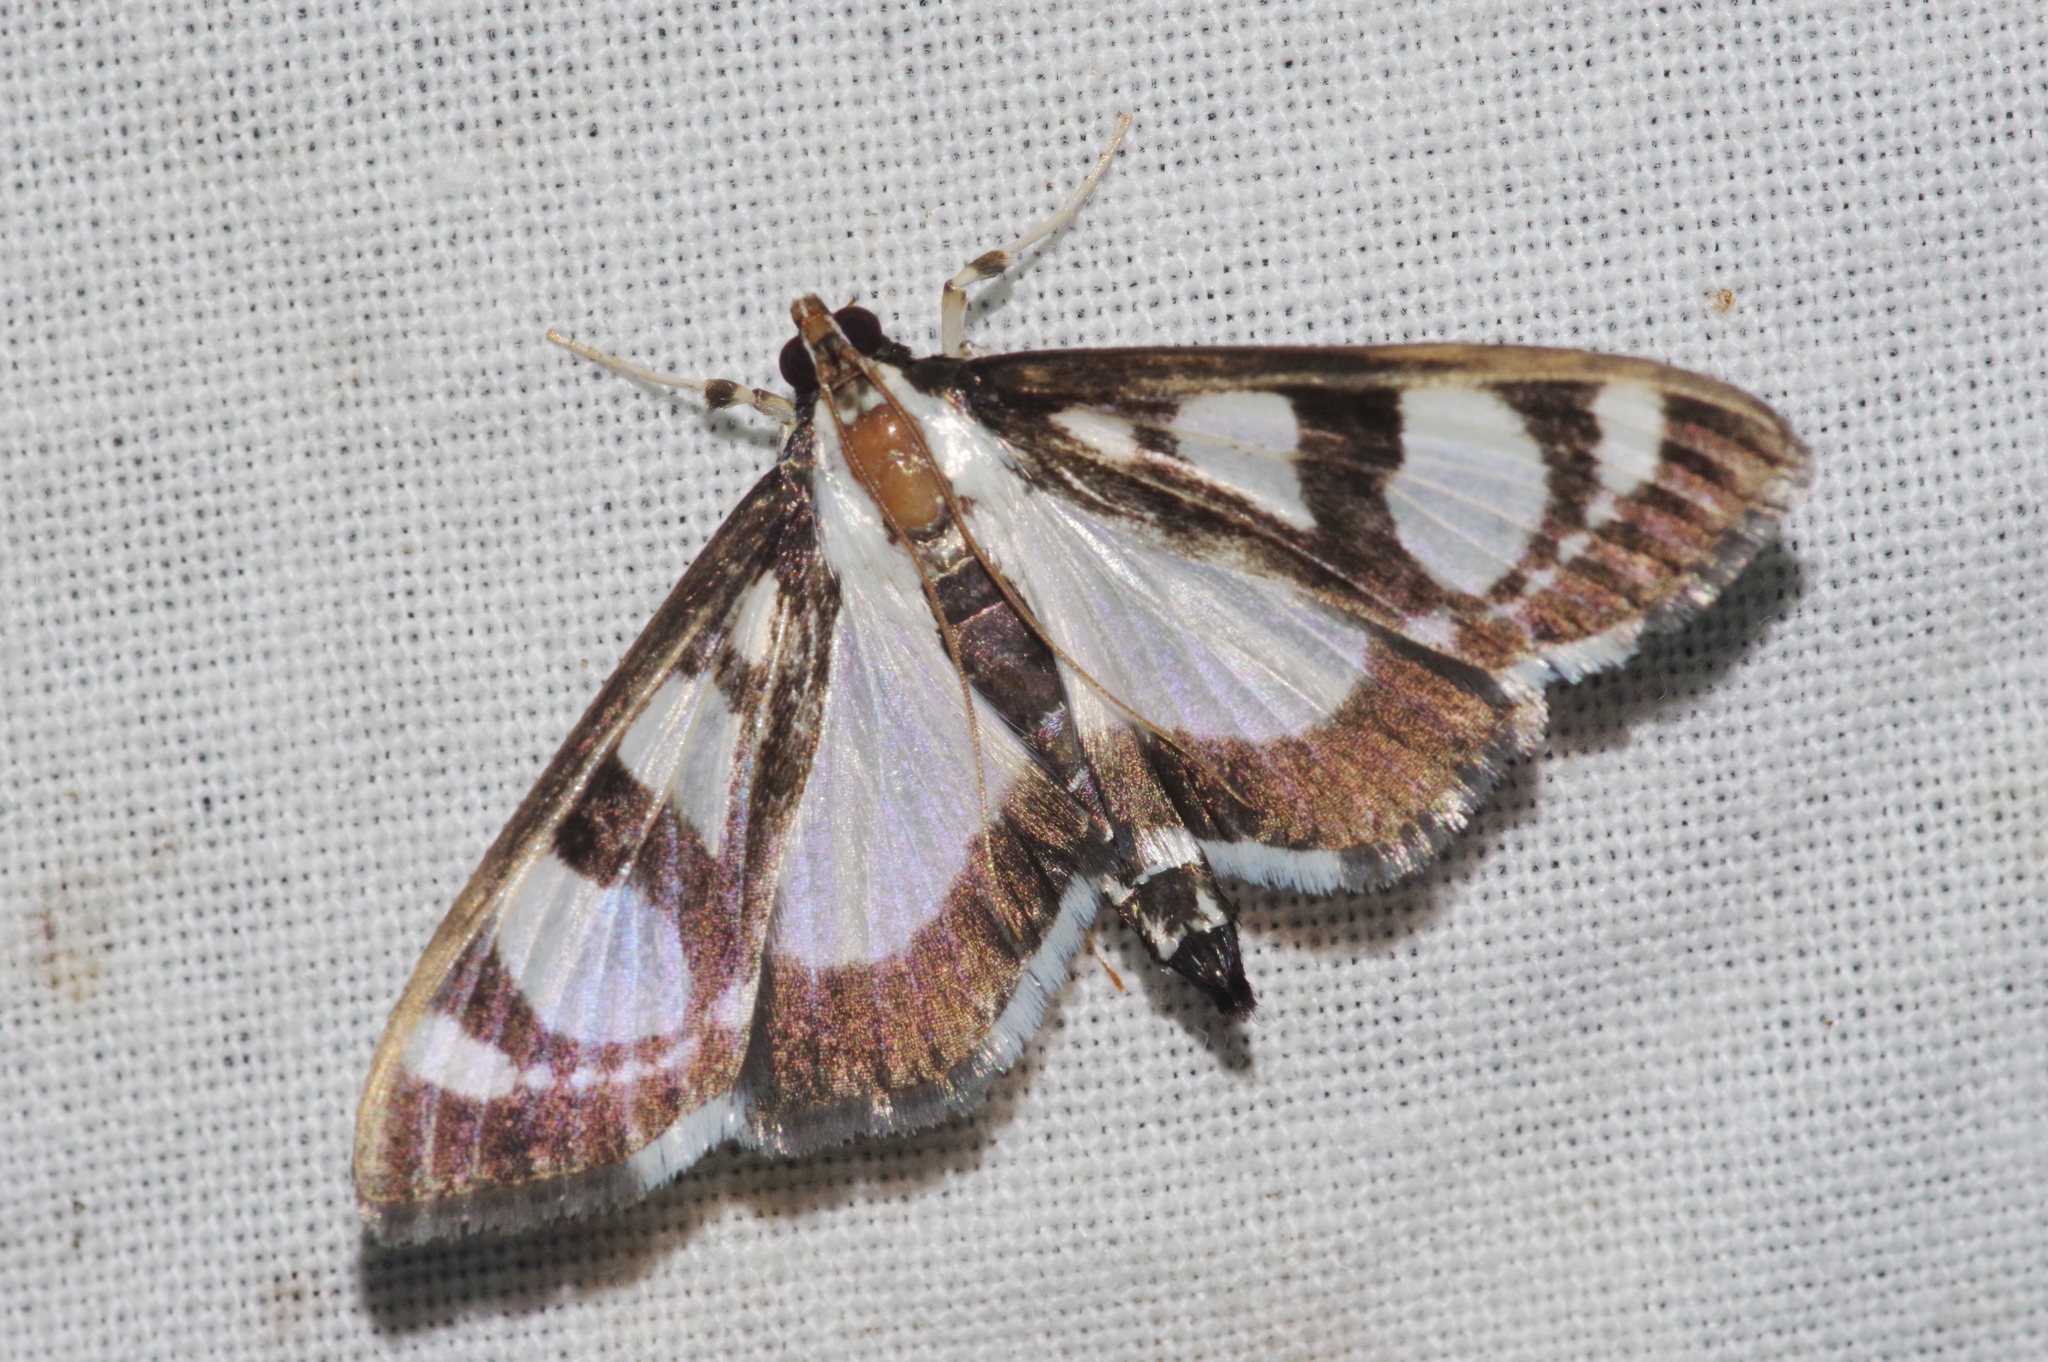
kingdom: Animalia
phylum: Arthropoda
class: Insecta
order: Lepidoptera
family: Crambidae
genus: Glyphodes
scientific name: Glyphodes quadrimaculalis
